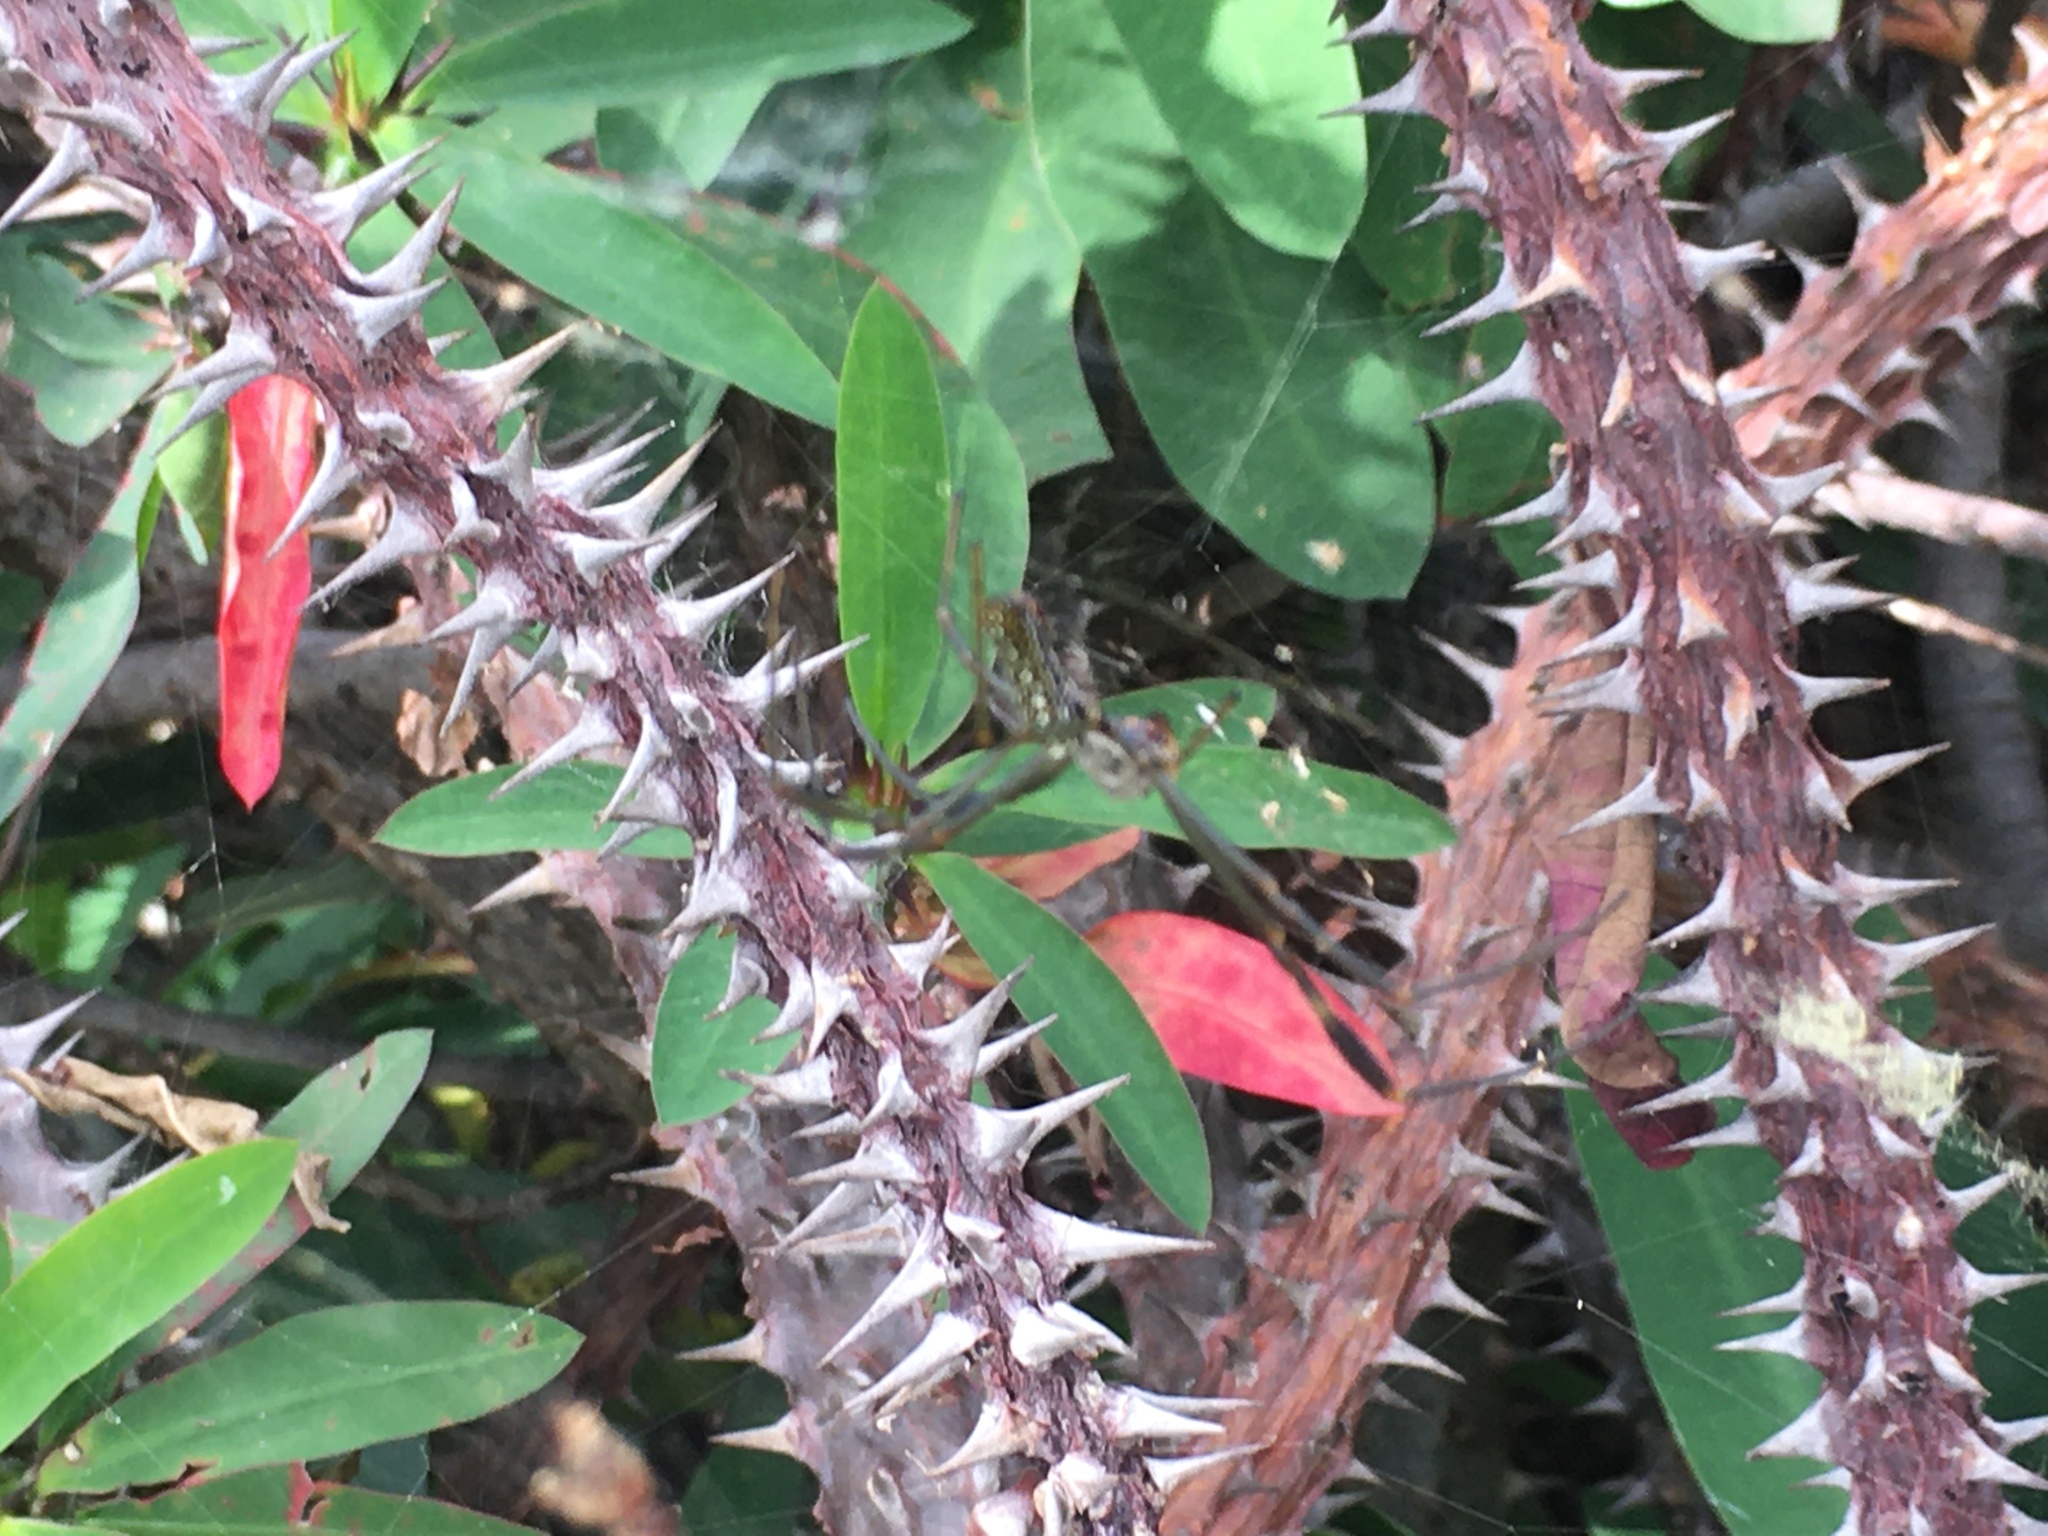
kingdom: Animalia
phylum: Arthropoda
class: Arachnida
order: Araneae
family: Araneidae
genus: Trichonephila
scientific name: Trichonephila clavipes
